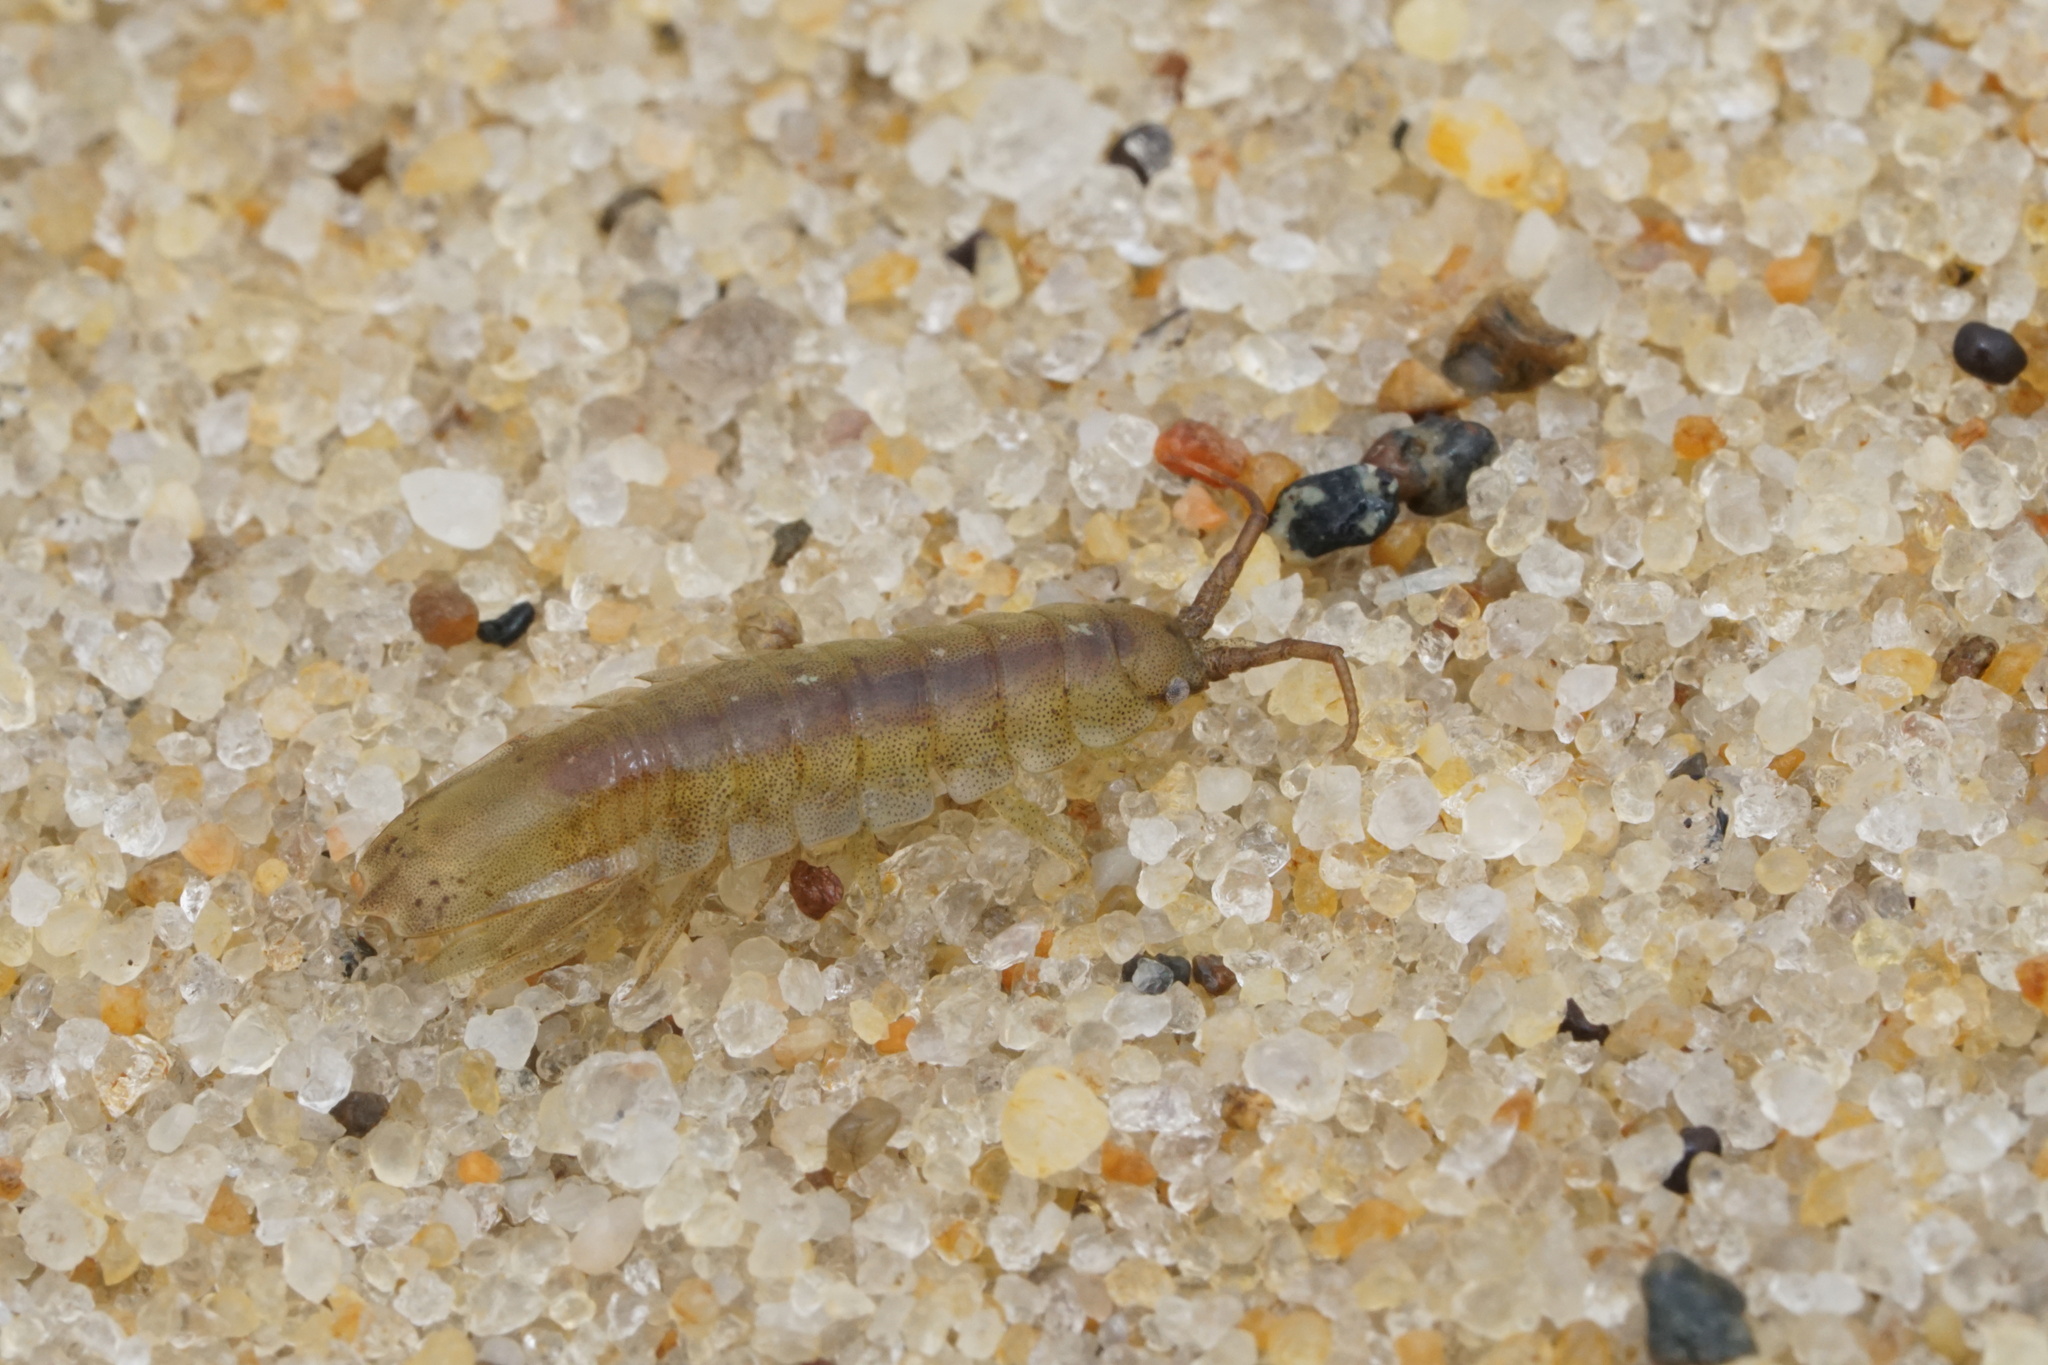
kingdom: Animalia
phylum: Arthropoda
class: Malacostraca
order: Isopoda
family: Idoteidae
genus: Idotea
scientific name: Idotea balthica
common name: Baltic isopod
